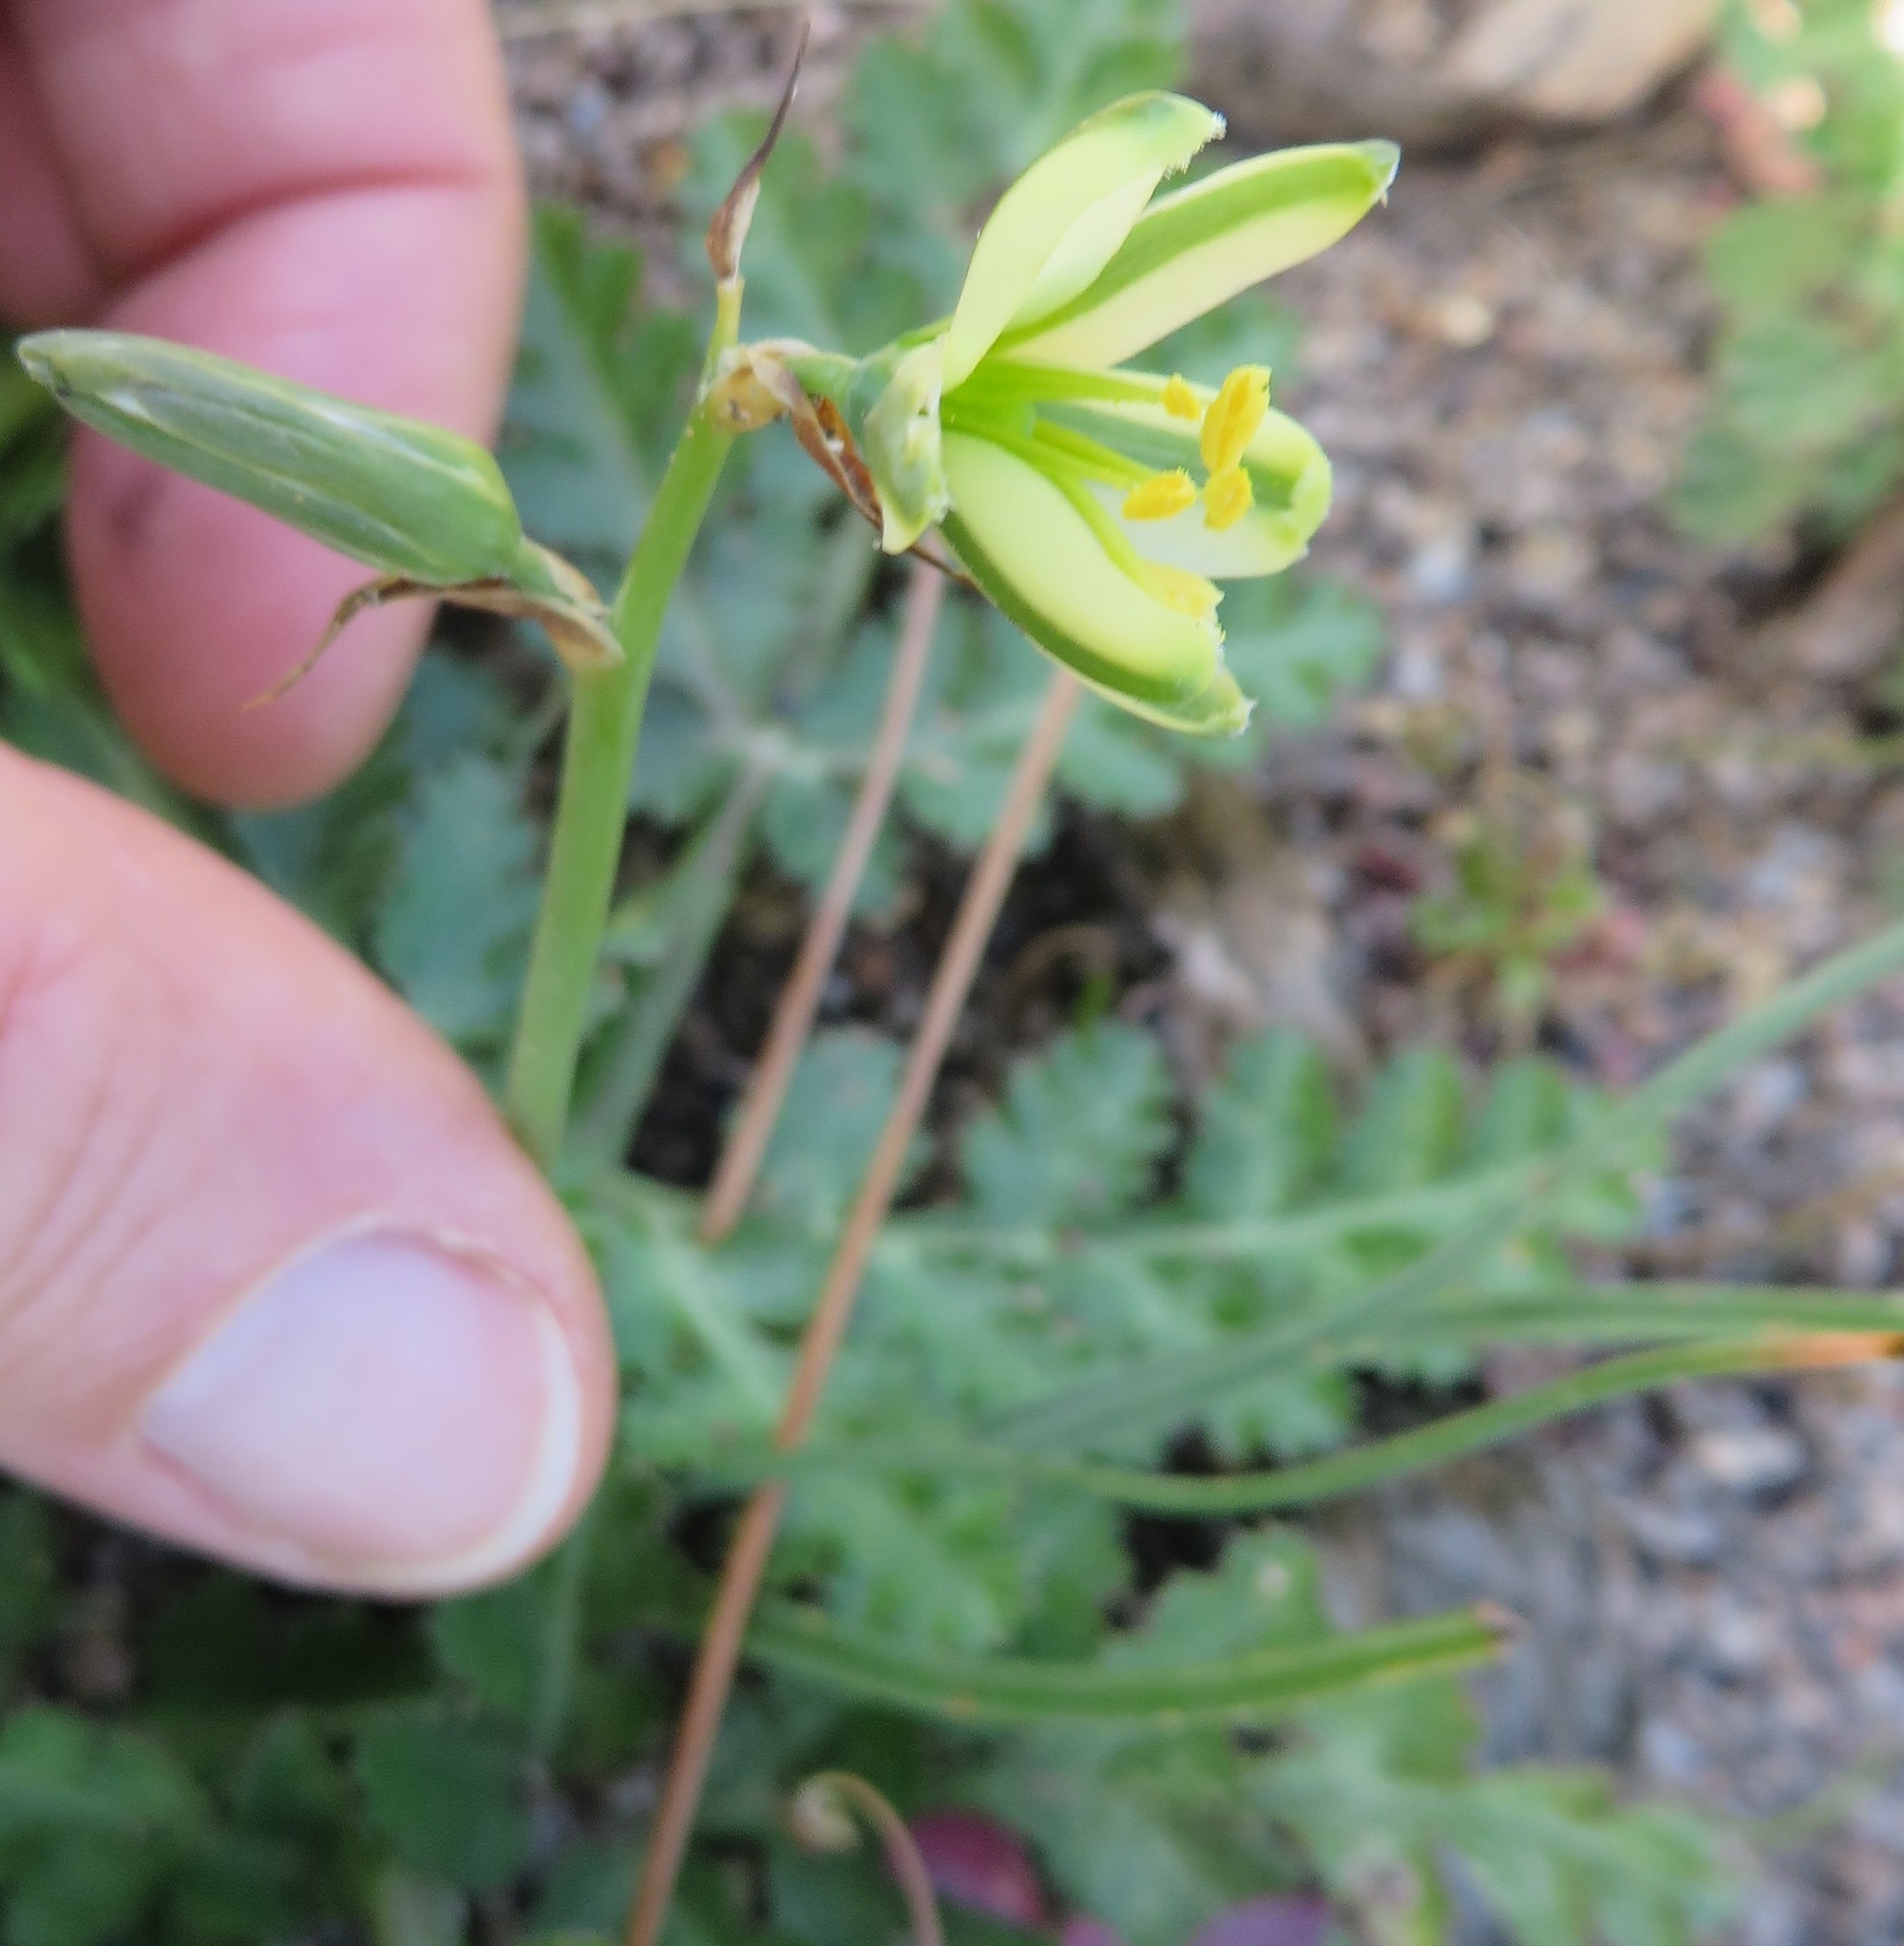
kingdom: Plantae
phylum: Tracheophyta
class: Liliopsida
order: Asparagales
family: Asparagaceae
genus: Albuca
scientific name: Albuca suaveolens
